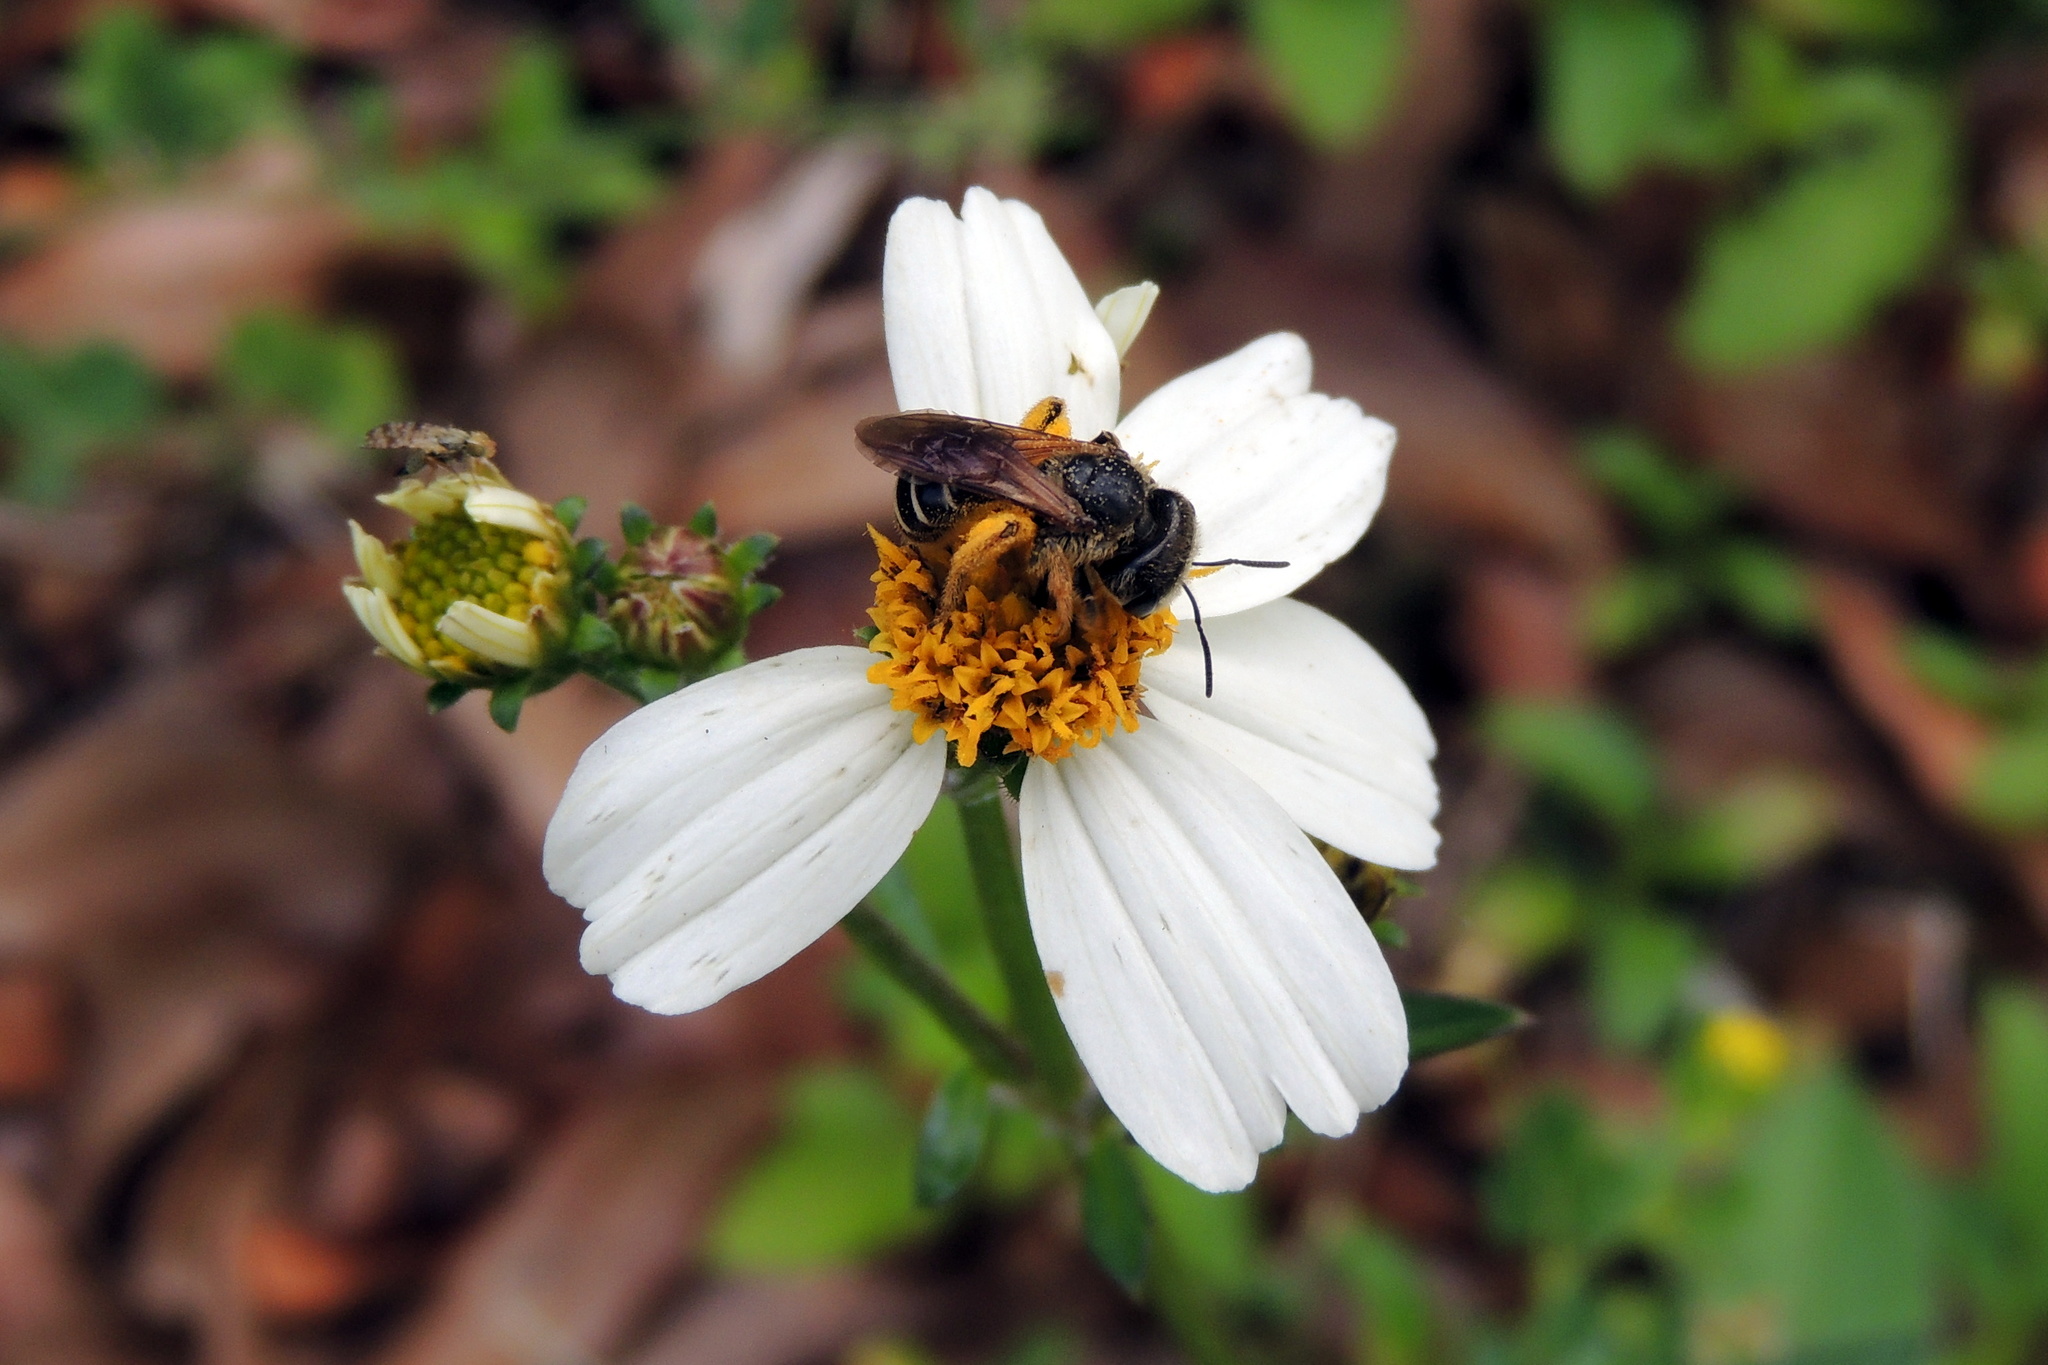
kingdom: Plantae
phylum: Tracheophyta
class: Magnoliopsida
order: Asterales
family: Asteraceae
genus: Bidens
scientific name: Bidens alba
